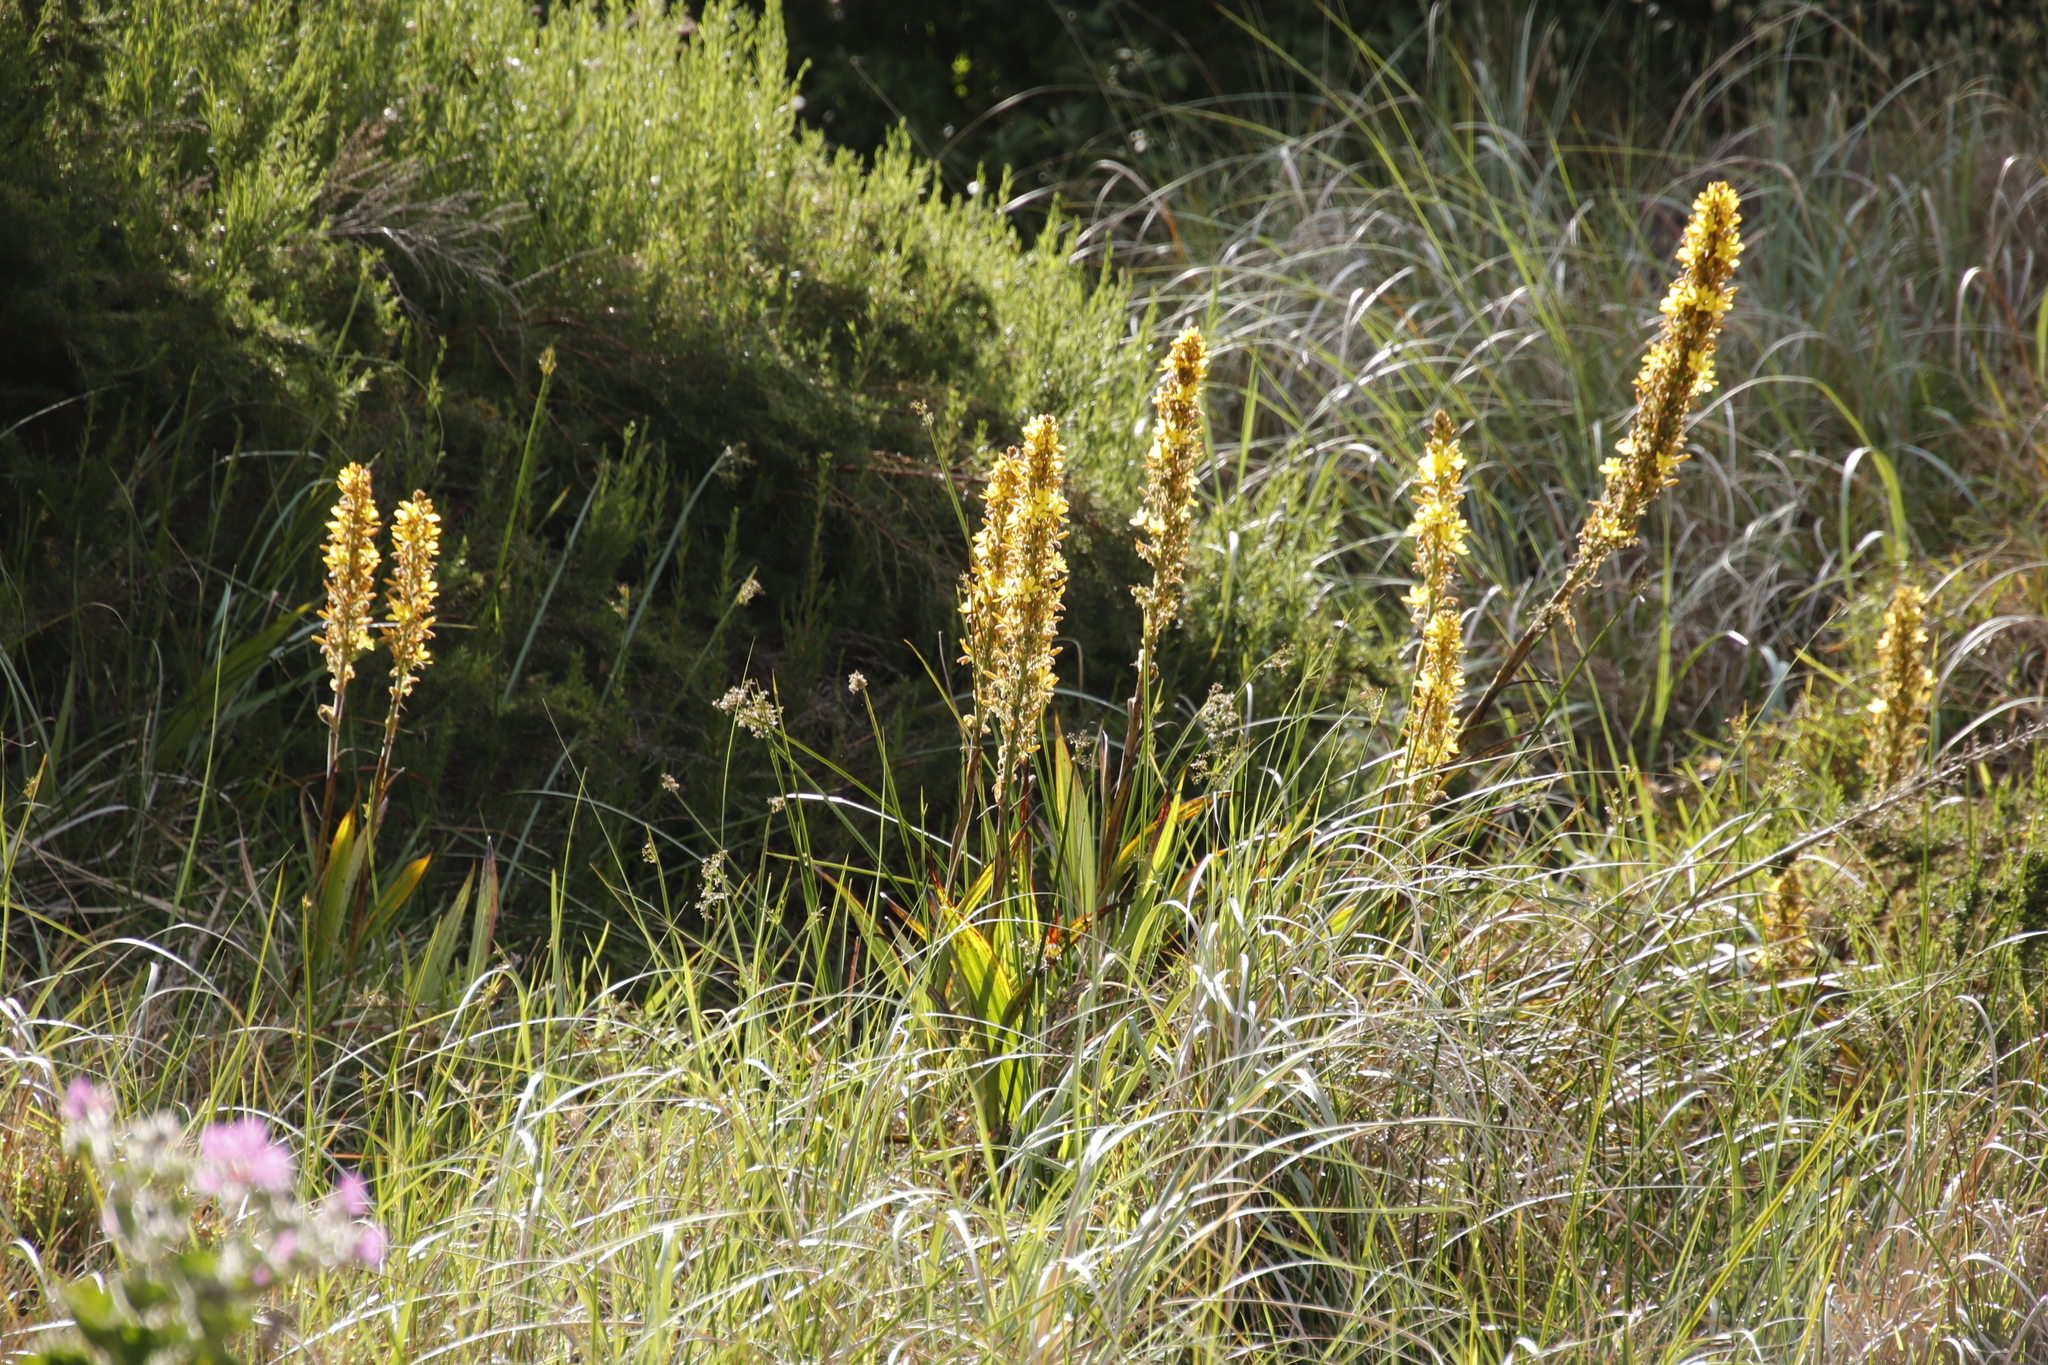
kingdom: Plantae
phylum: Tracheophyta
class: Liliopsida
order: Commelinales
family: Haemodoraceae
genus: Wachendorfia
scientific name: Wachendorfia thyrsiflora
